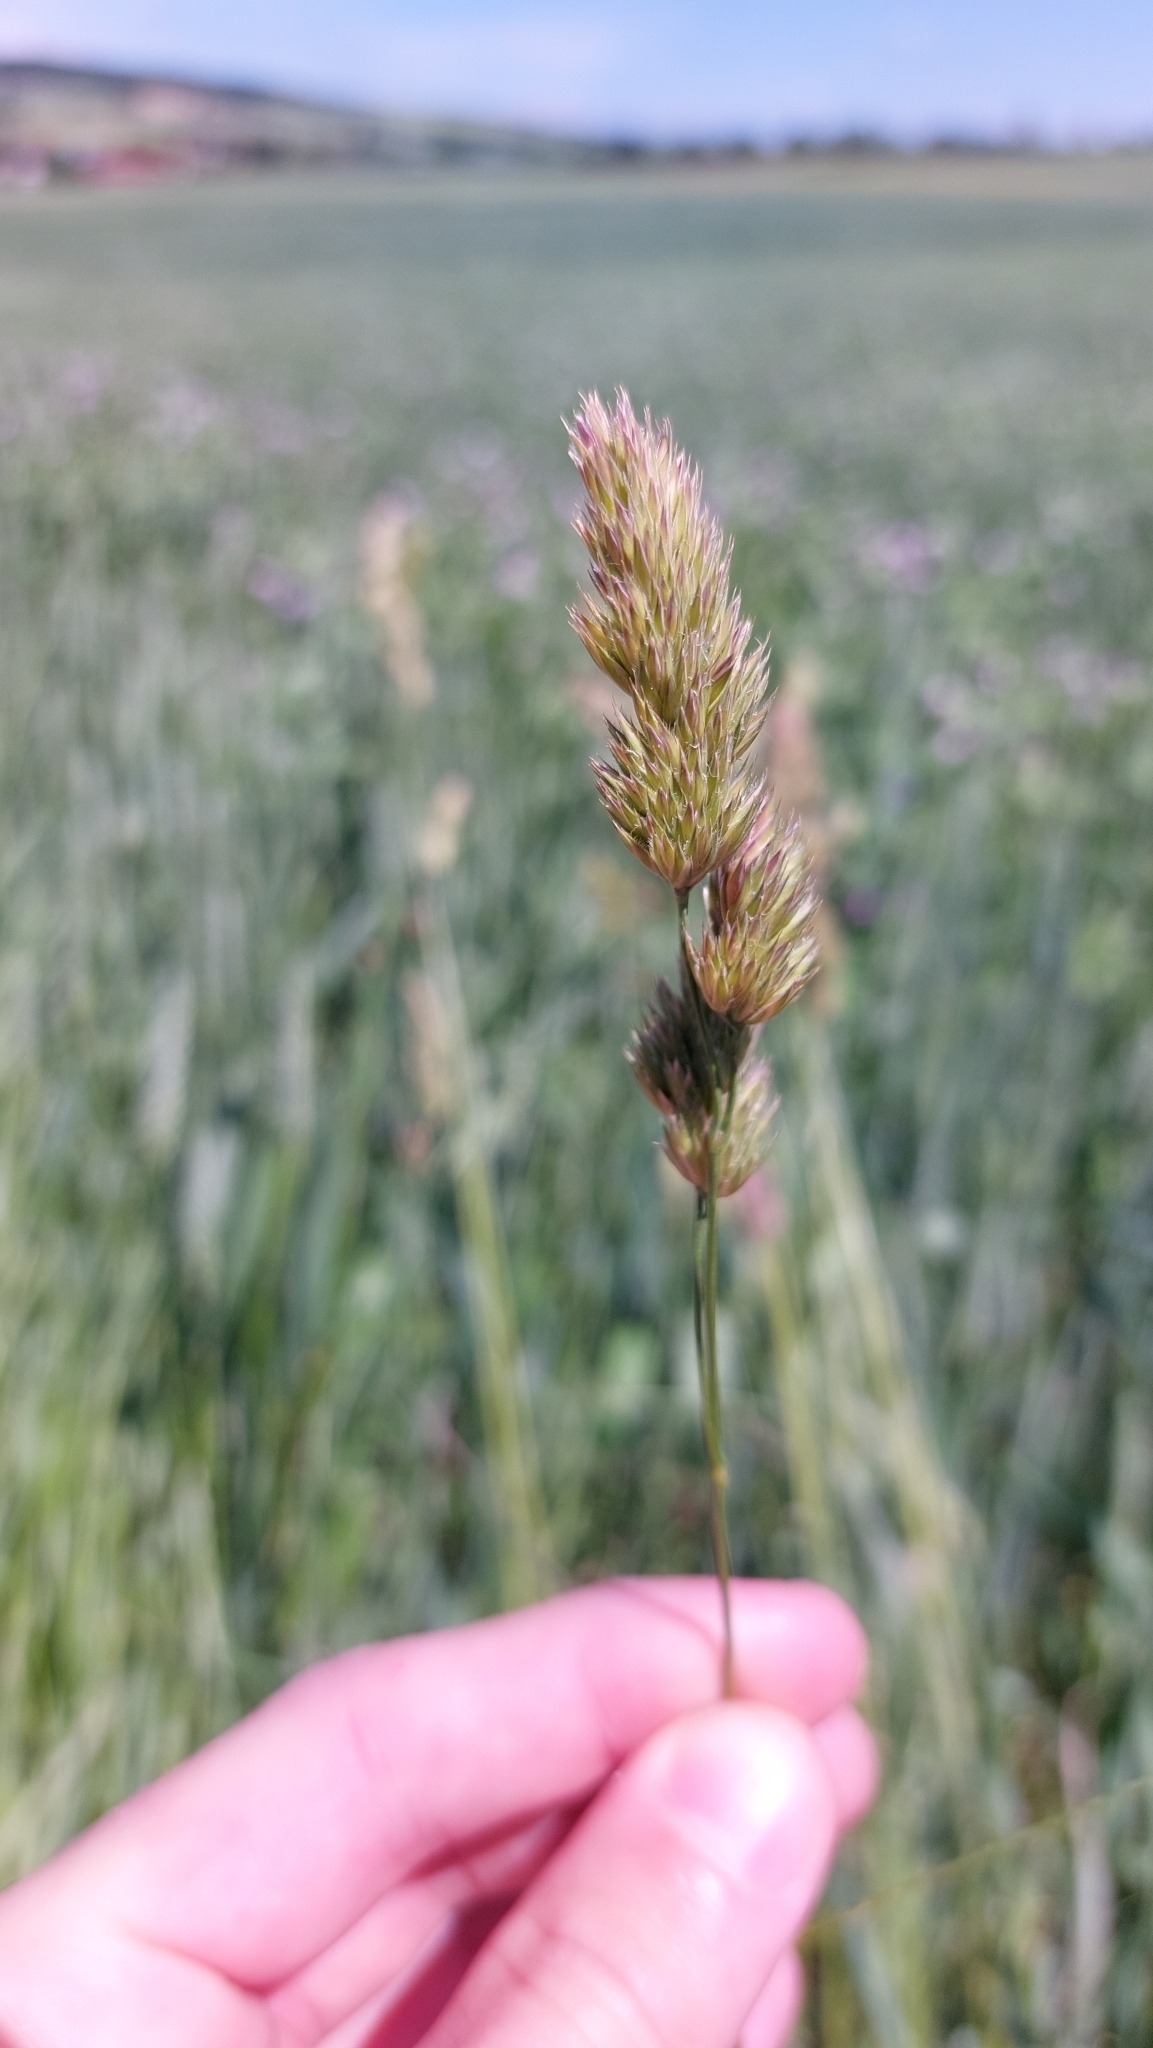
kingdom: Plantae
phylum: Tracheophyta
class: Liliopsida
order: Poales
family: Poaceae
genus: Dactylis
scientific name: Dactylis glomerata
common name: Orchardgrass
